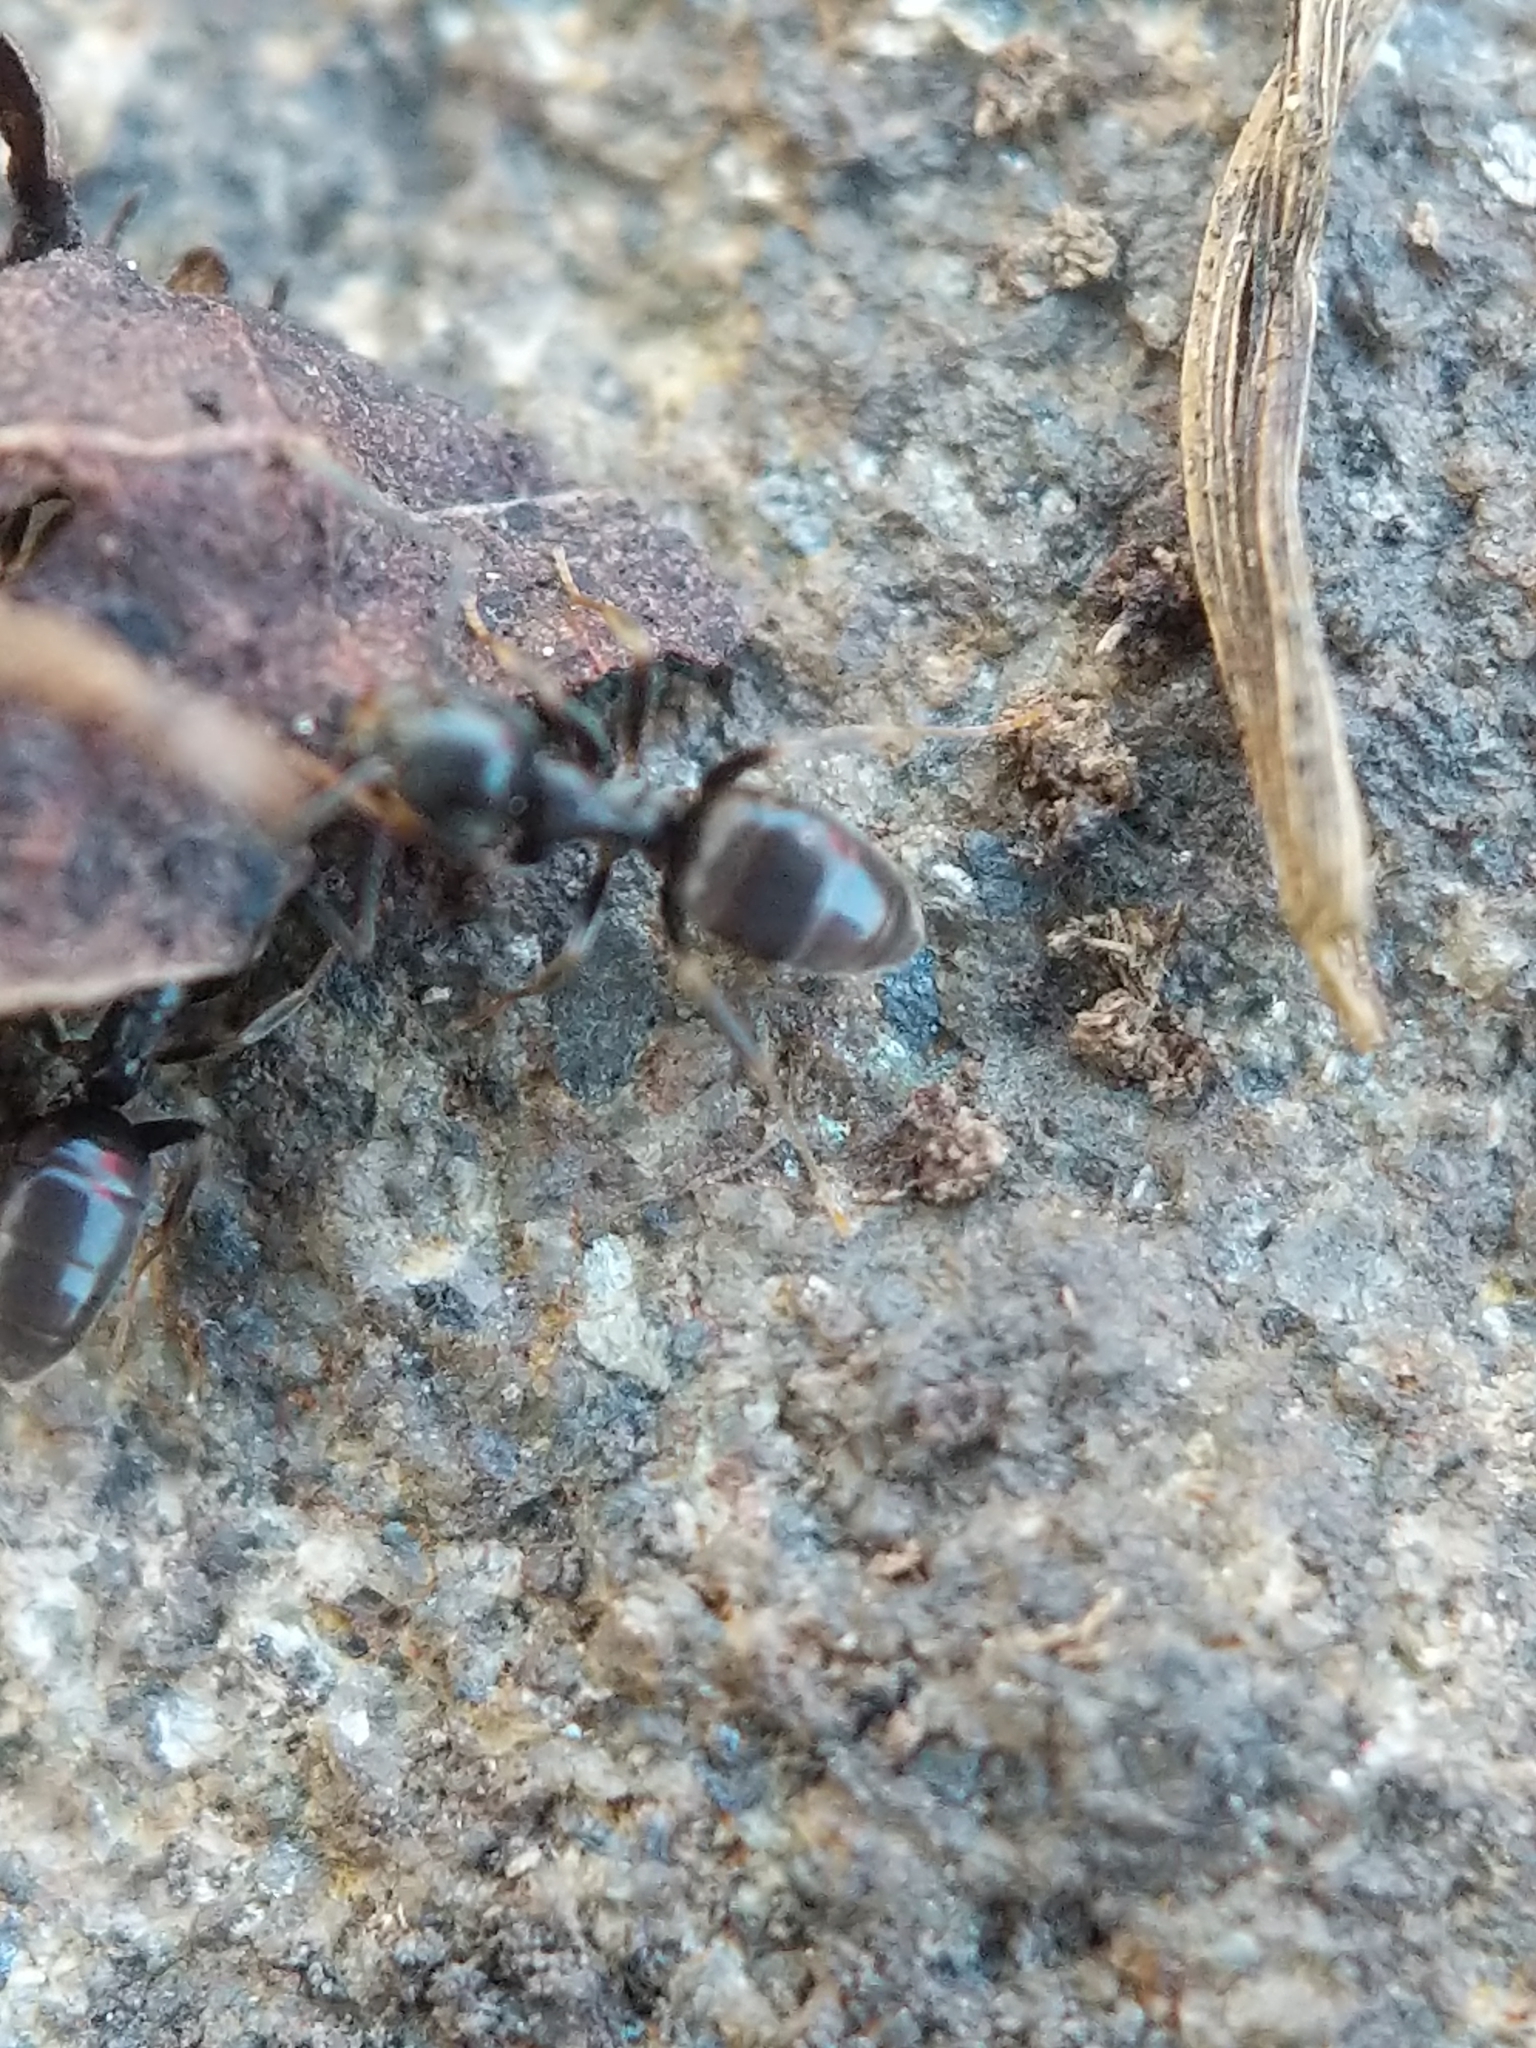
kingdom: Animalia
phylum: Arthropoda
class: Insecta
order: Hymenoptera
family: Formicidae
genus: Tapinoma
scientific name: Tapinoma sessile
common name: Odorous house ant
